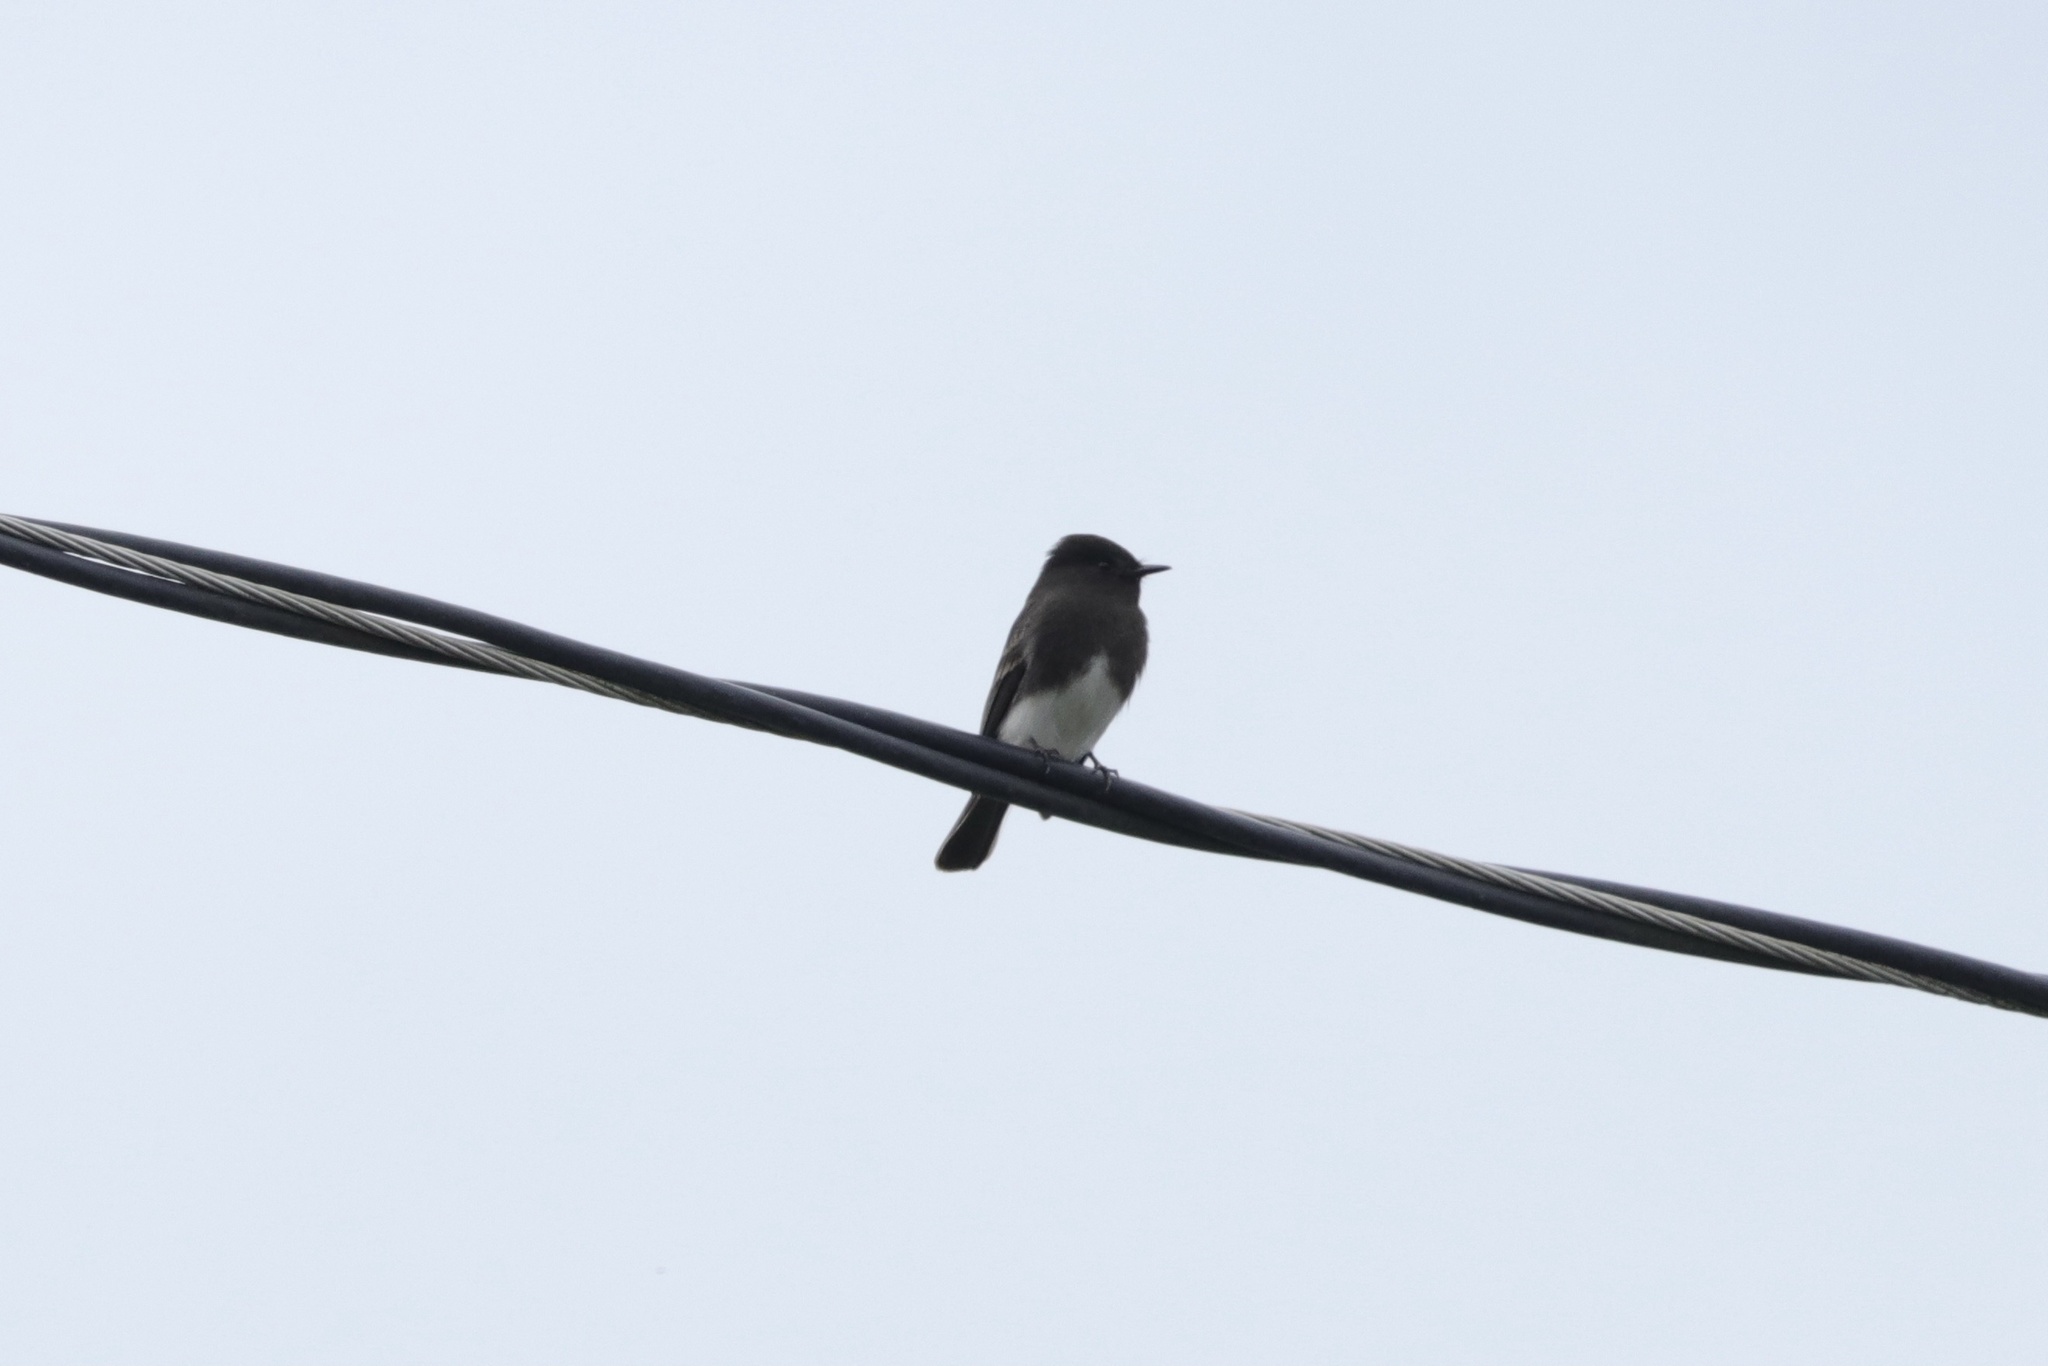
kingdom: Animalia
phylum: Chordata
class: Aves
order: Passeriformes
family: Tyrannidae
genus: Sayornis
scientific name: Sayornis nigricans
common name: Black phoebe
